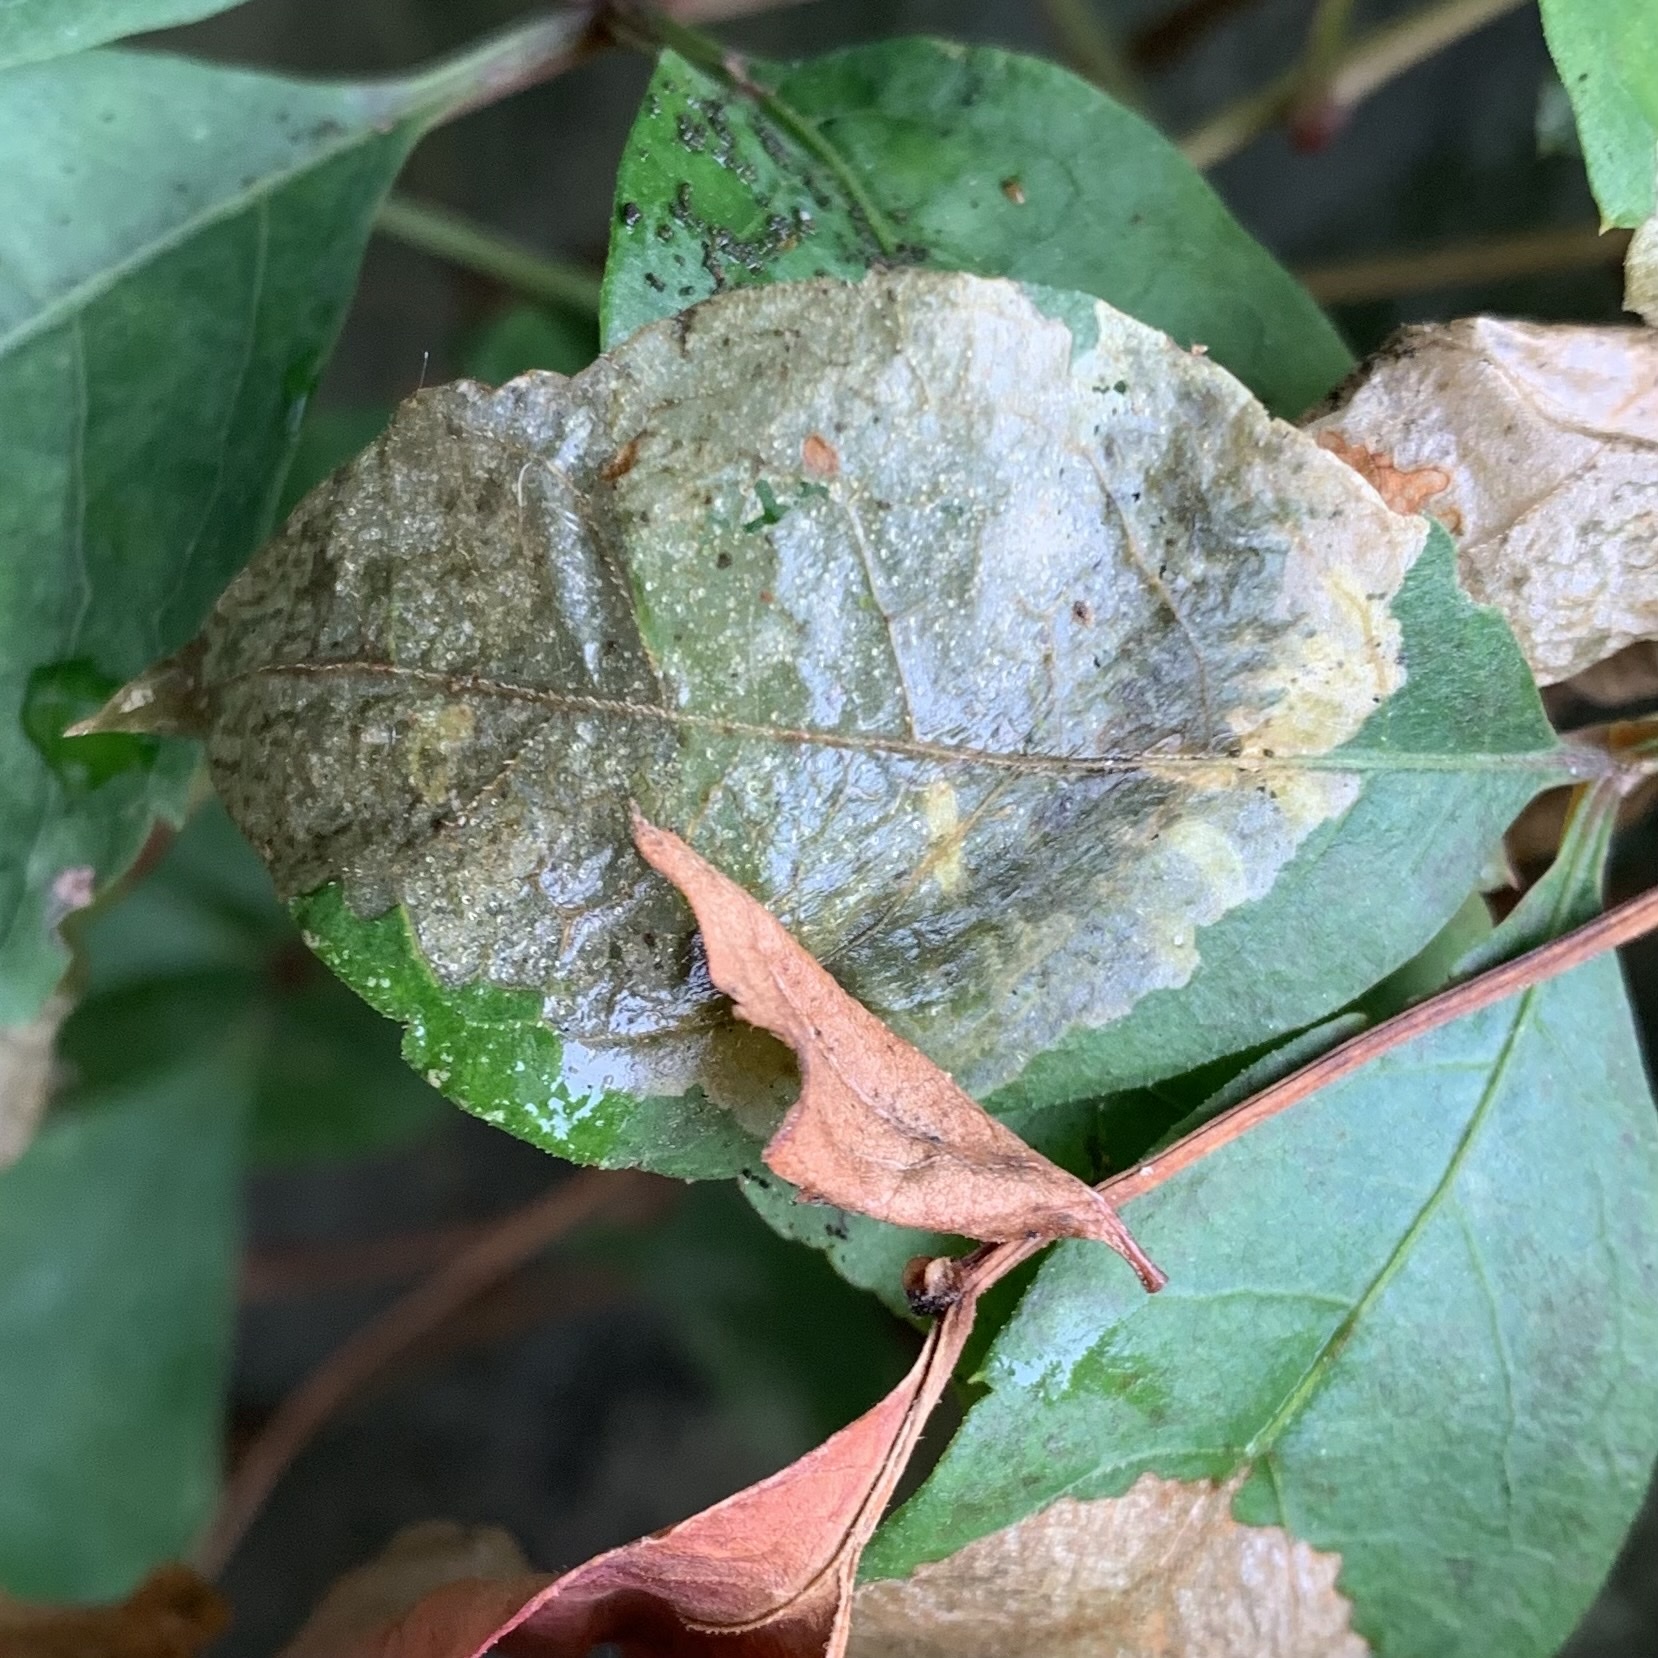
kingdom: Animalia
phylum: Arthropoda
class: Insecta
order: Lepidoptera
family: Zygaenidae
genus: Harrisina
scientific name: Harrisina americana
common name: Grapeleaf skeletonizer moth
